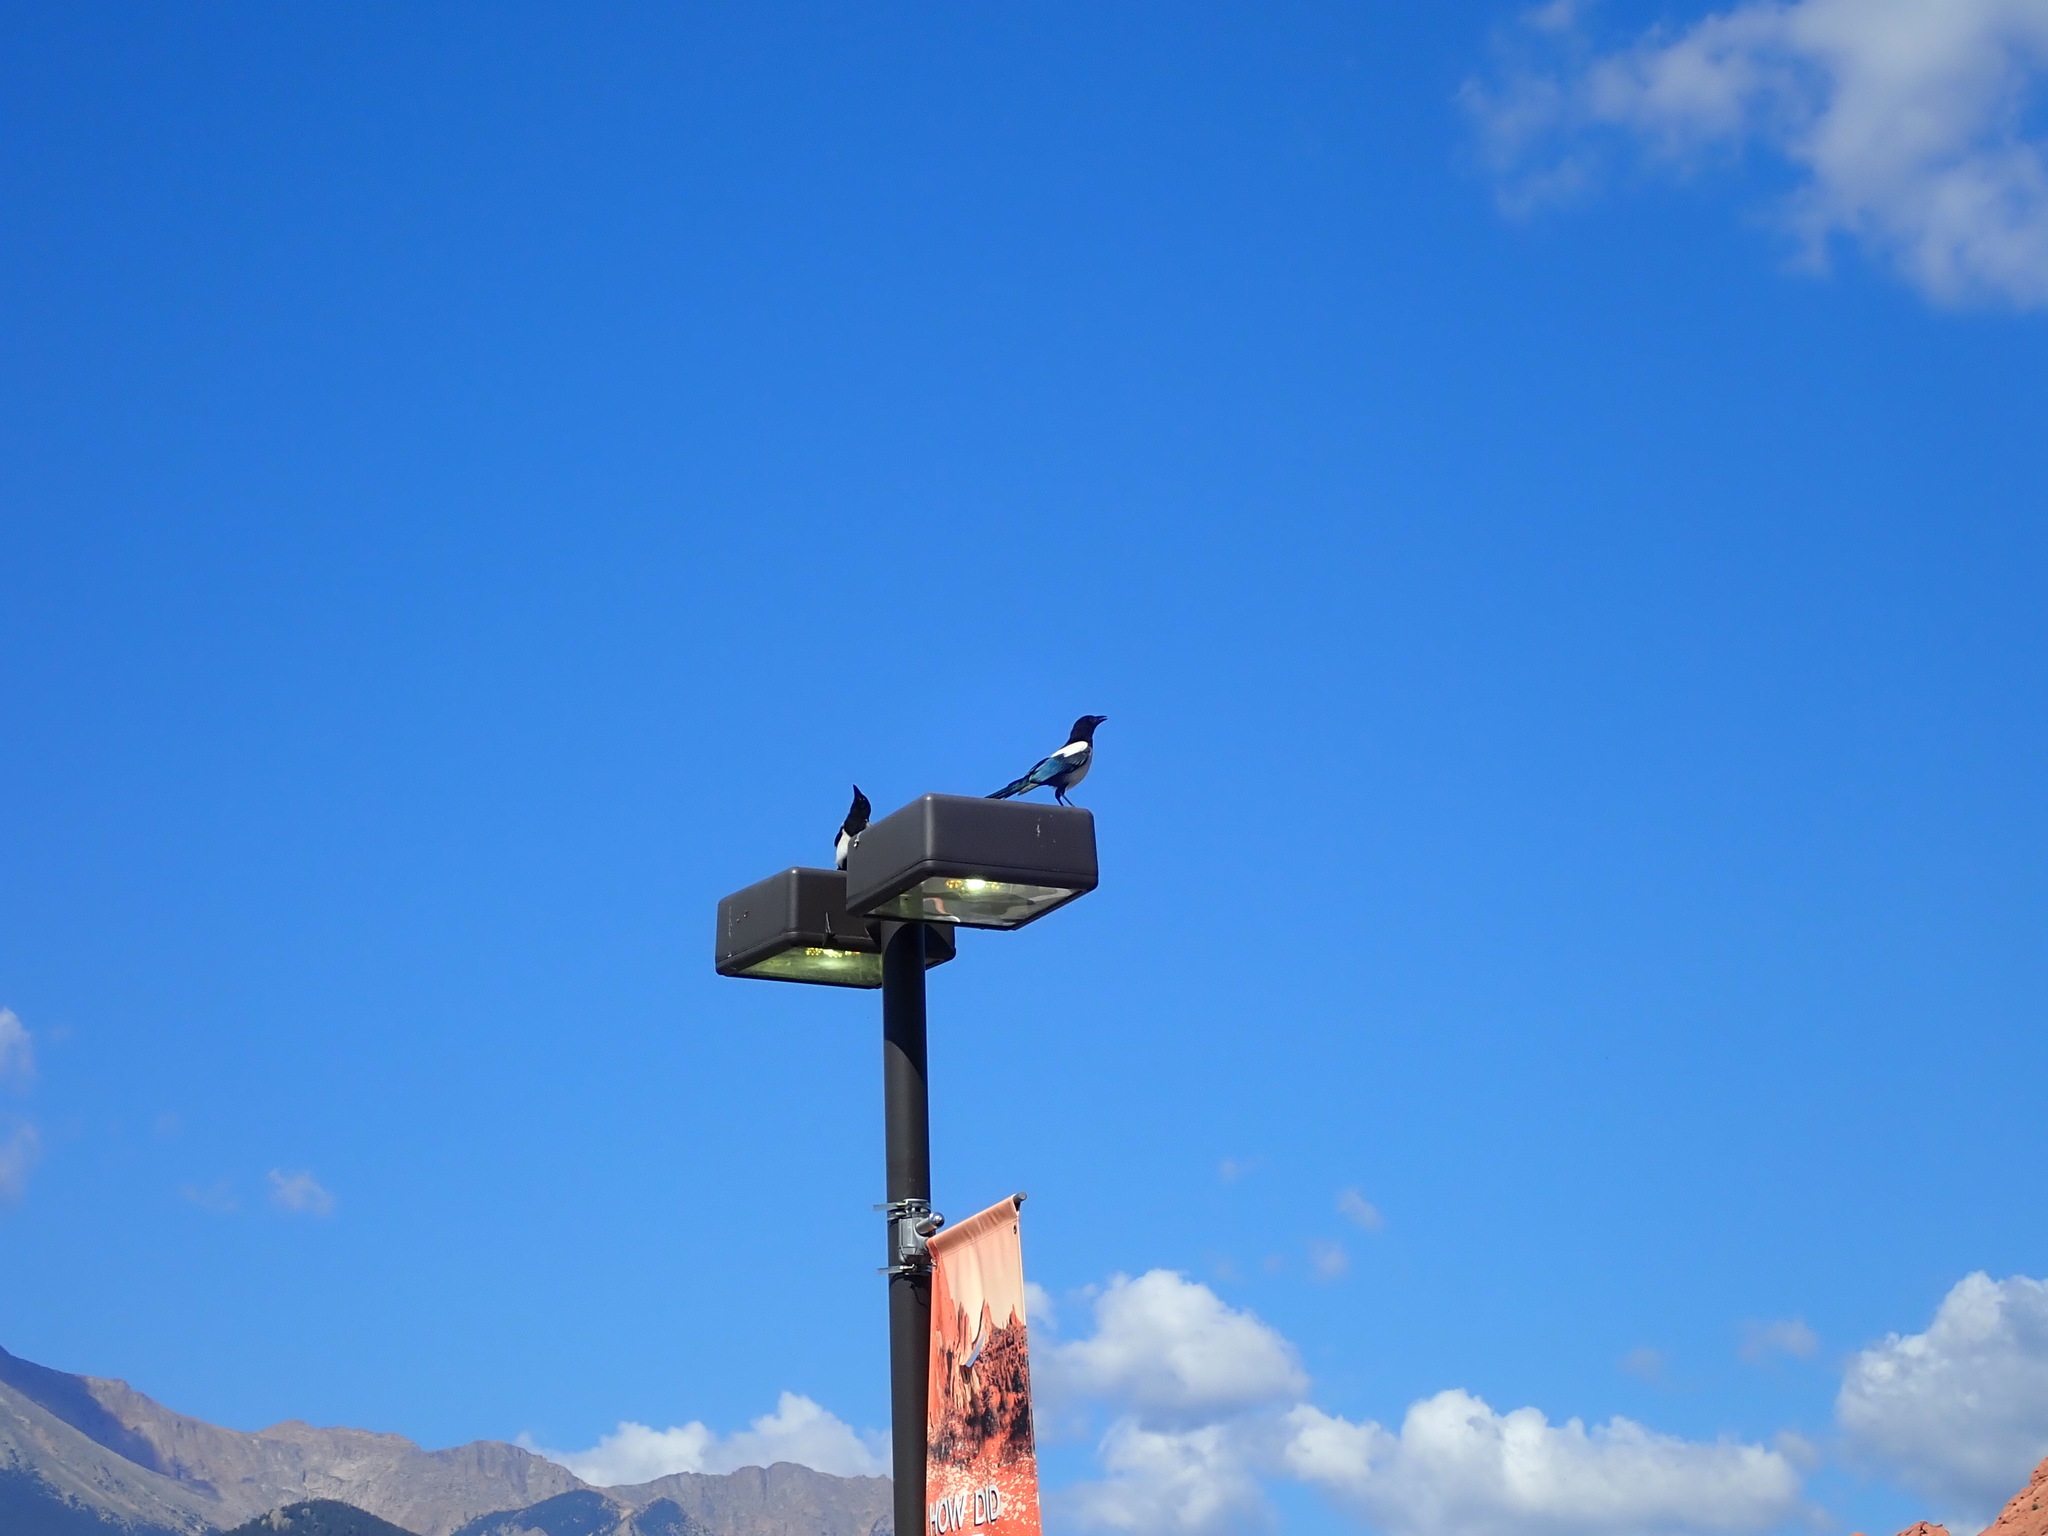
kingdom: Animalia
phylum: Chordata
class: Aves
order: Passeriformes
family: Corvidae
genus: Pica
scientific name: Pica hudsonia
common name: Black-billed magpie
